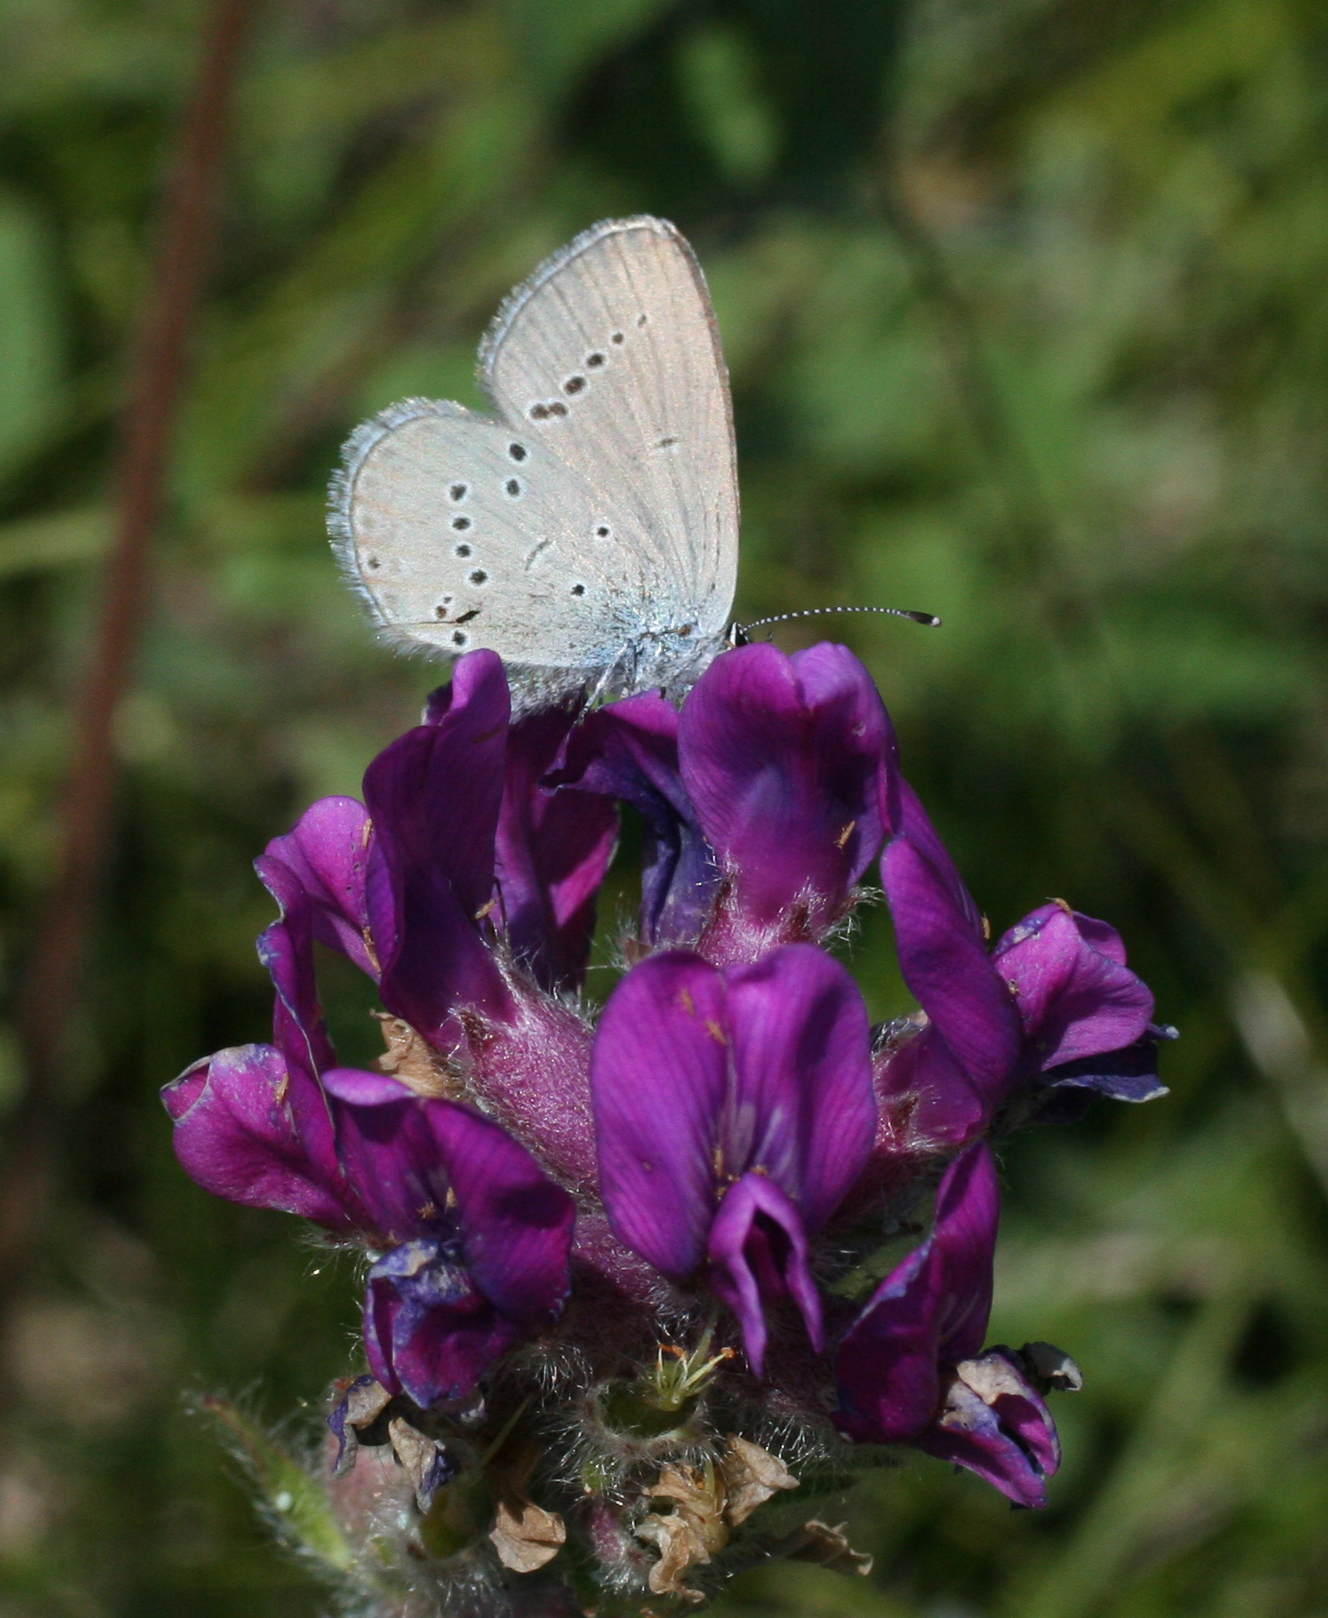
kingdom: Animalia
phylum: Arthropoda
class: Insecta
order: Lepidoptera
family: Lycaenidae
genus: Cupido
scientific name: Cupido minimus
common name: Small blue
